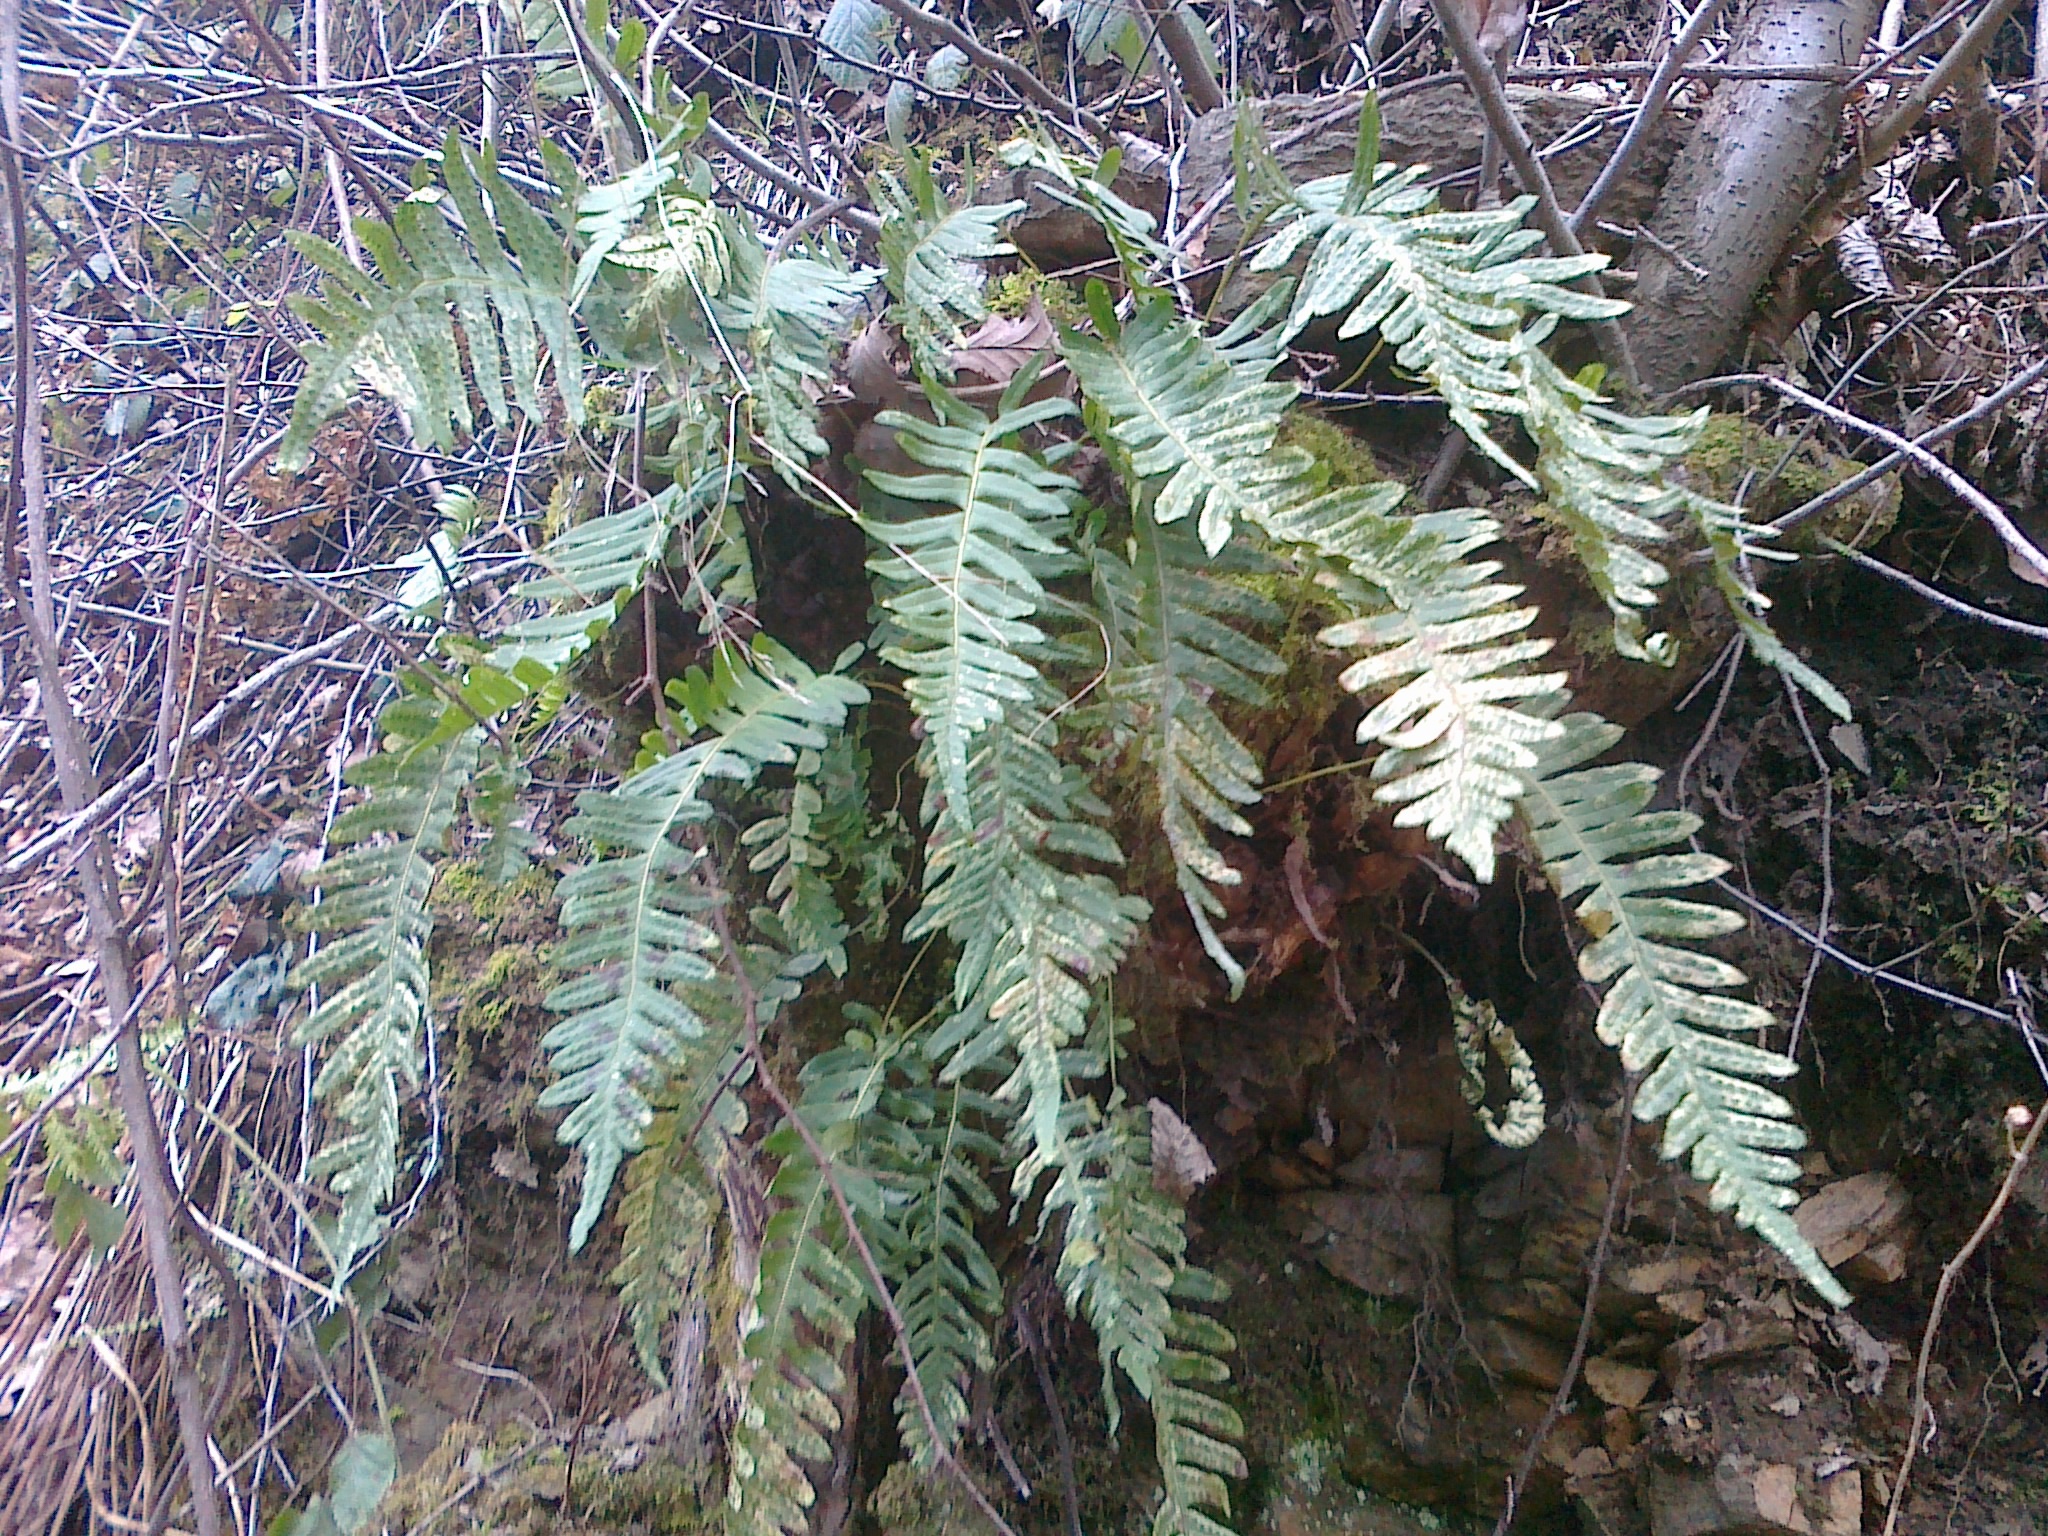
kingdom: Plantae
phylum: Tracheophyta
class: Polypodiopsida
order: Polypodiales
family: Polypodiaceae
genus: Polypodium
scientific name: Polypodium vulgare
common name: Common polypody
